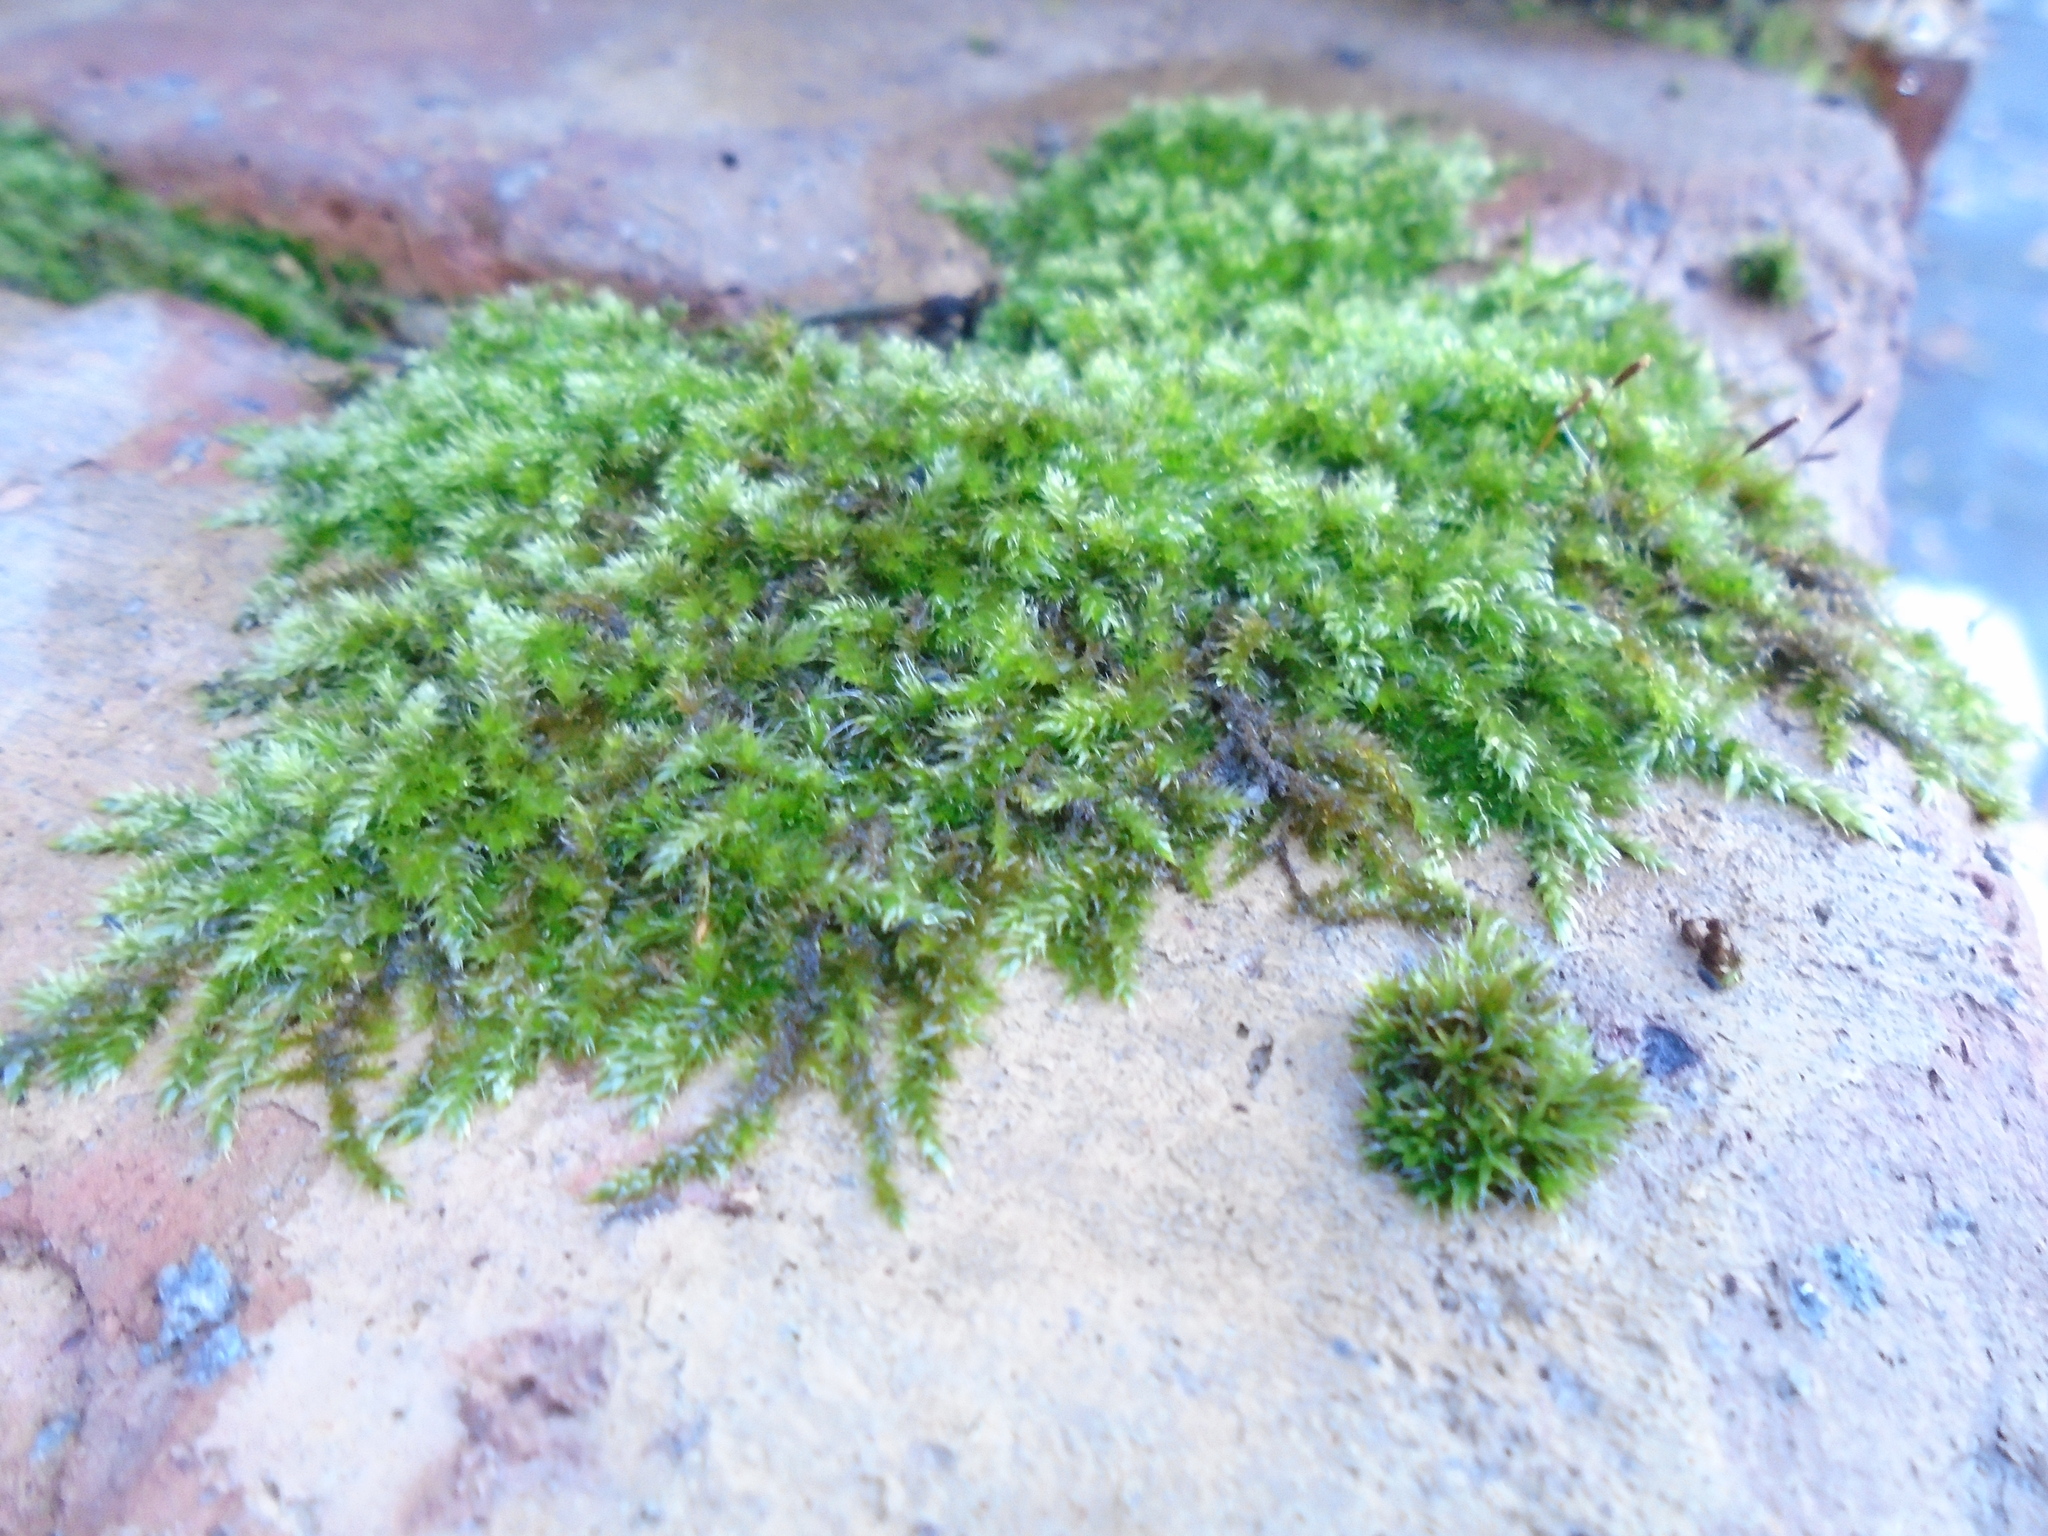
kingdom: Plantae
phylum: Bryophyta
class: Bryopsida
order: Hypnales
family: Hypnaceae
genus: Hypnum
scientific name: Hypnum cupressiforme
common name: Cypress-leaved plait-moss
